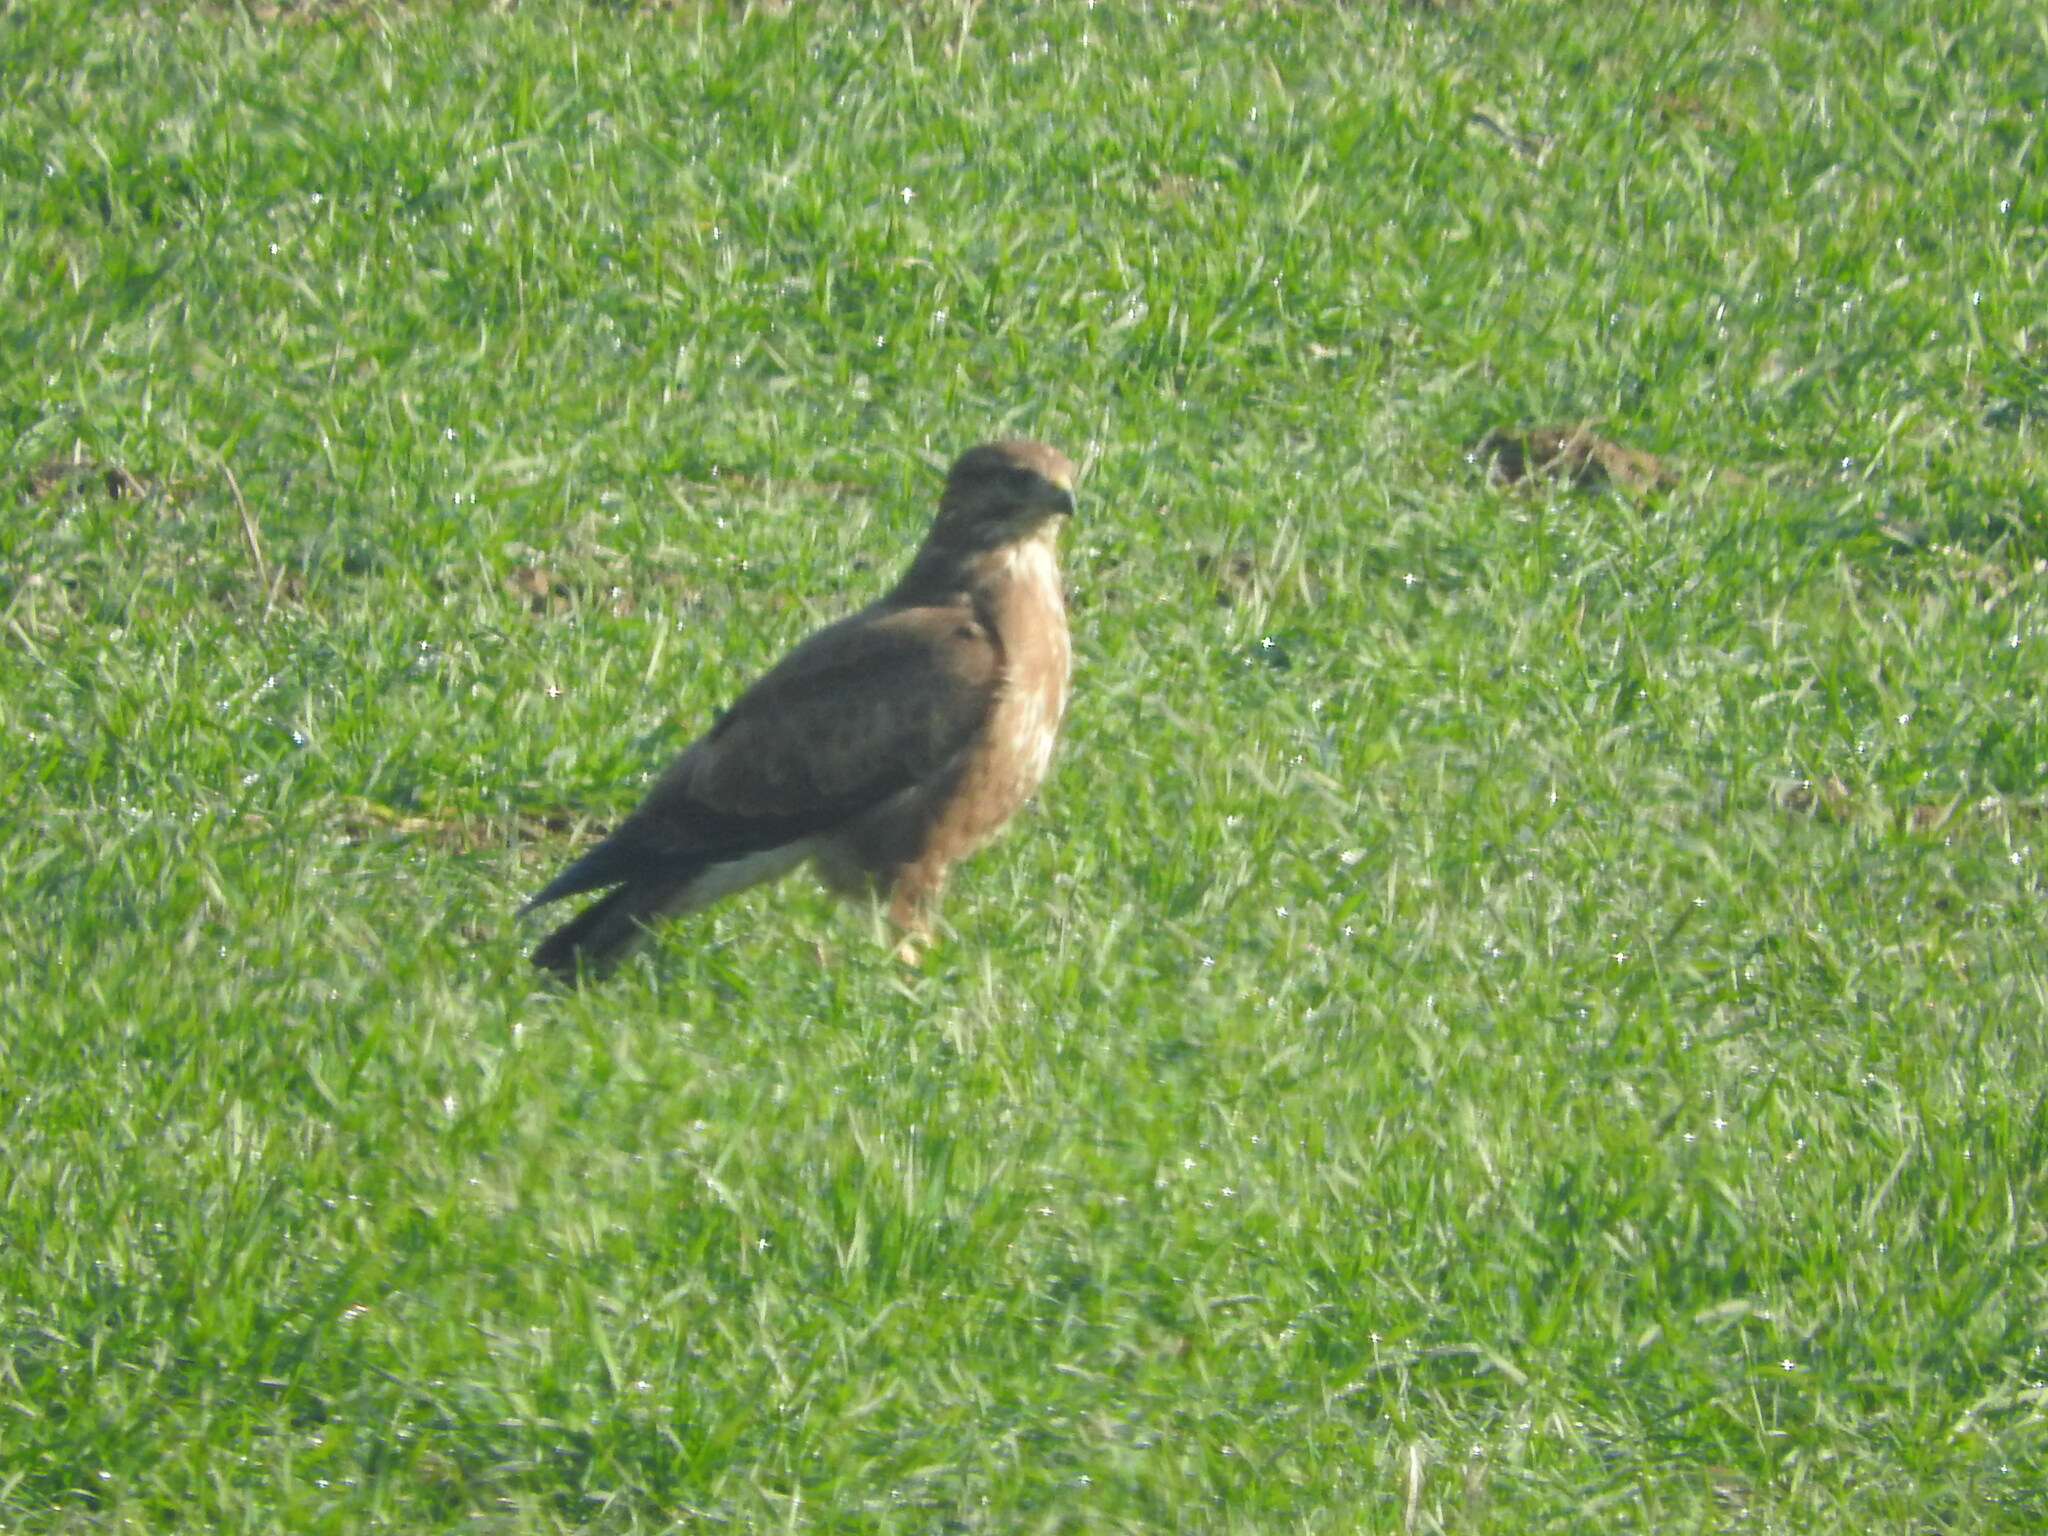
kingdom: Animalia
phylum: Chordata
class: Aves
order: Accipitriformes
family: Accipitridae
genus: Buteo
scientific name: Buteo buteo
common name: Common buzzard
